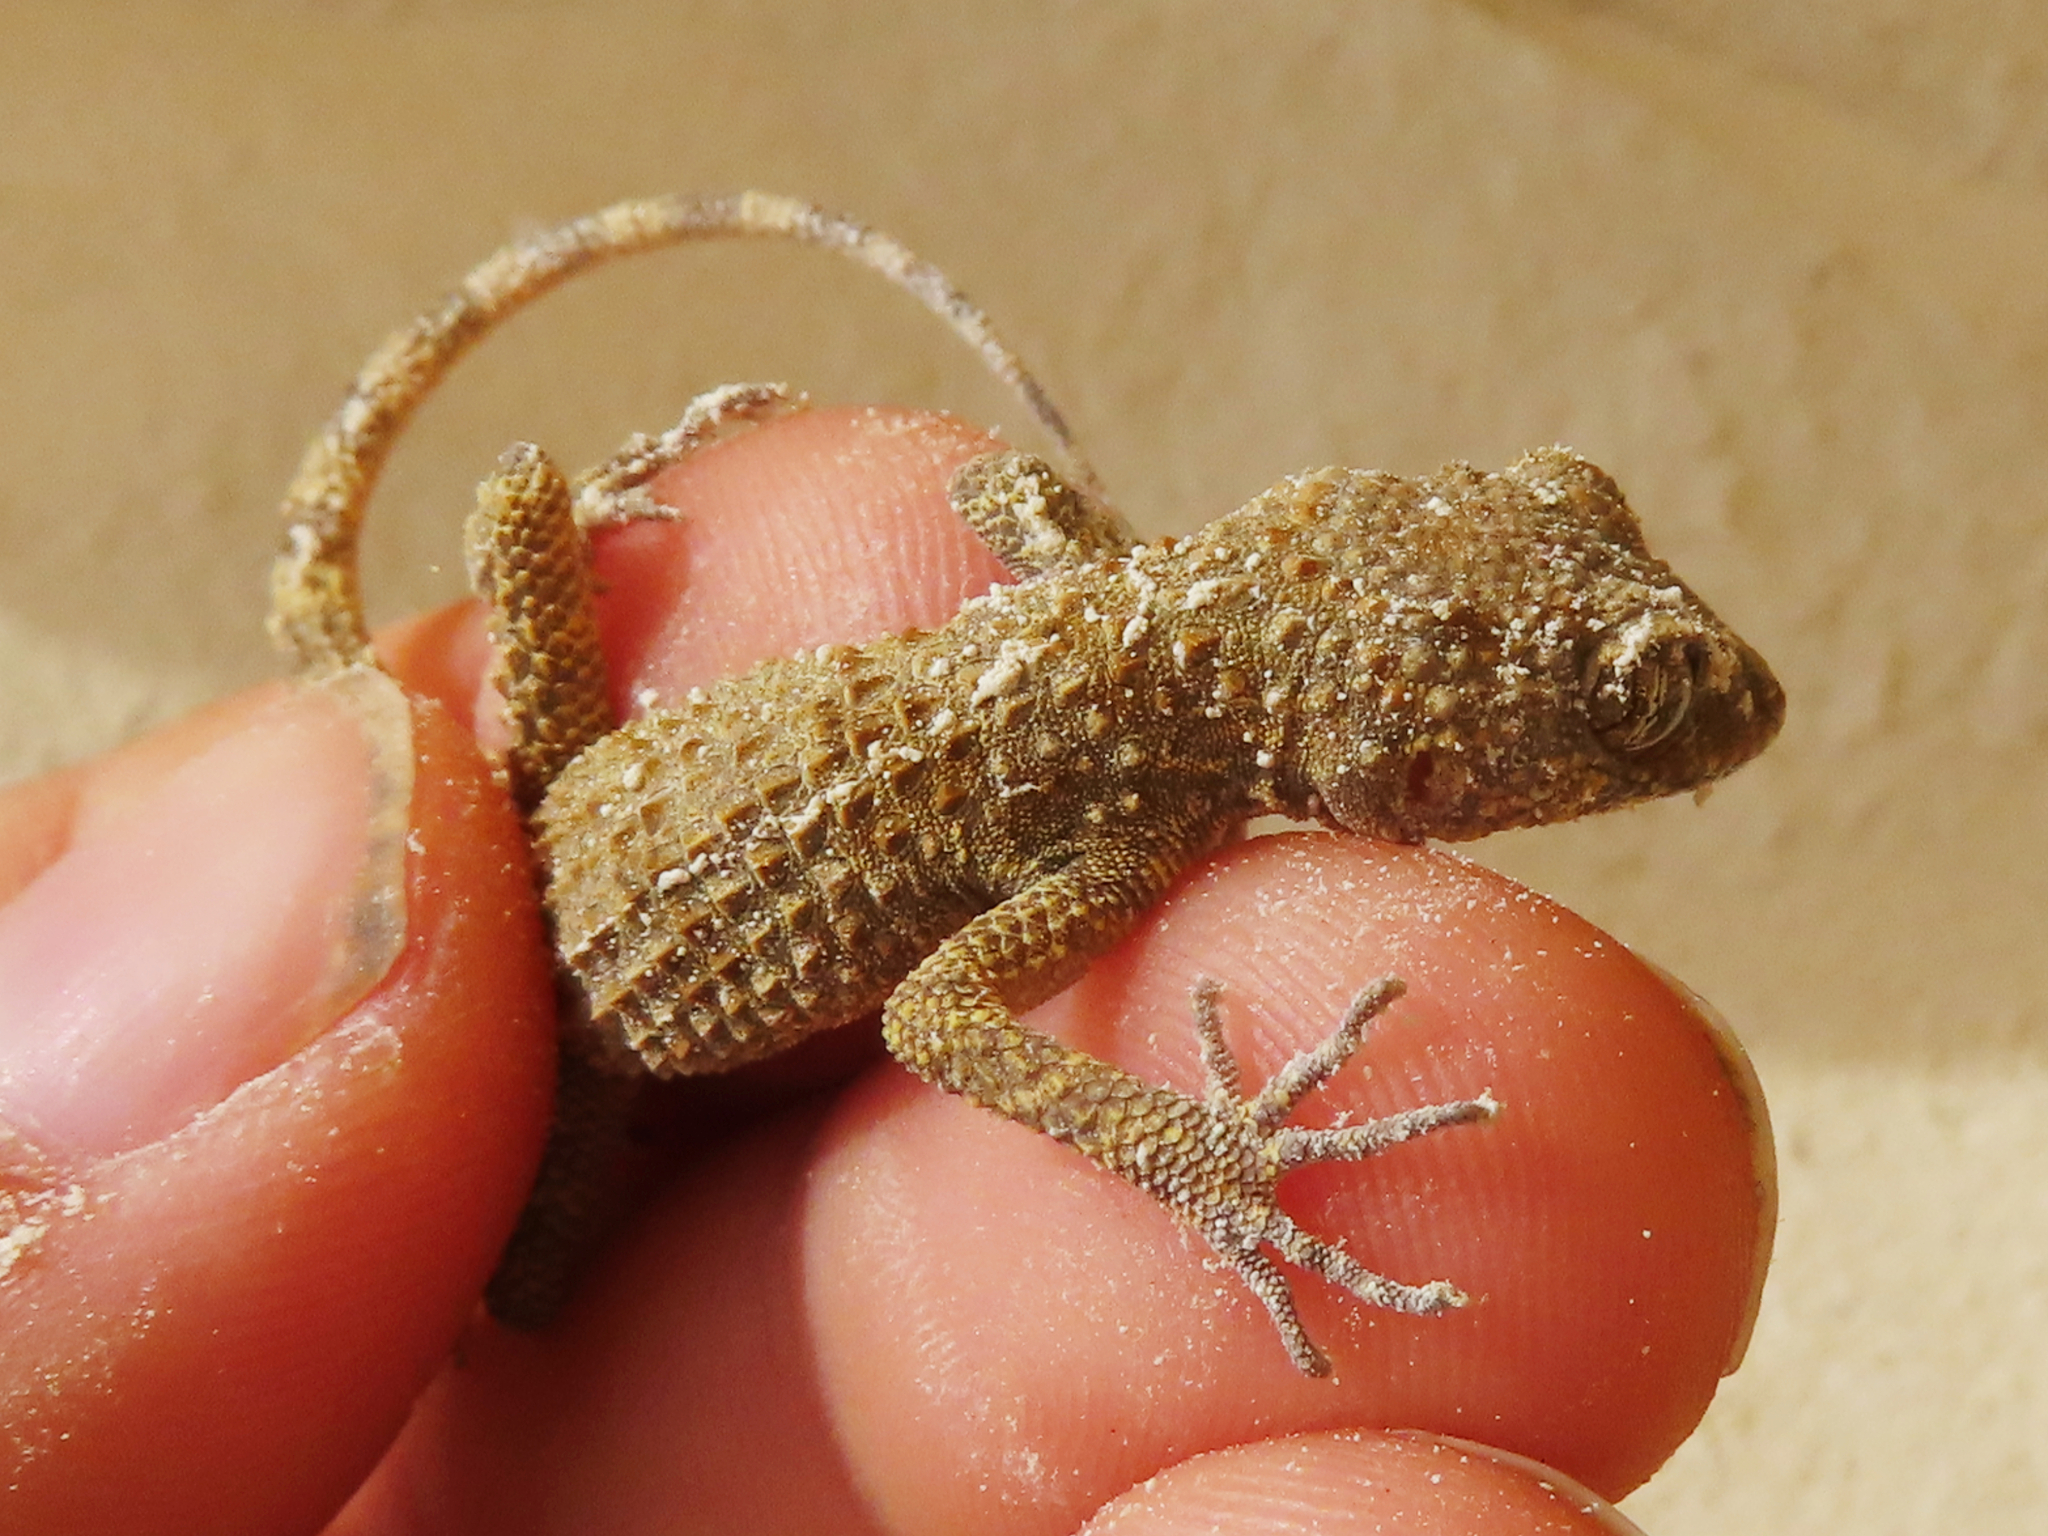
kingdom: Animalia
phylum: Chordata
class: Squamata
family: Gekkonidae
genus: Tenuidactylus
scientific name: Tenuidactylus caspius
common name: Caspian bent-toed gecko
